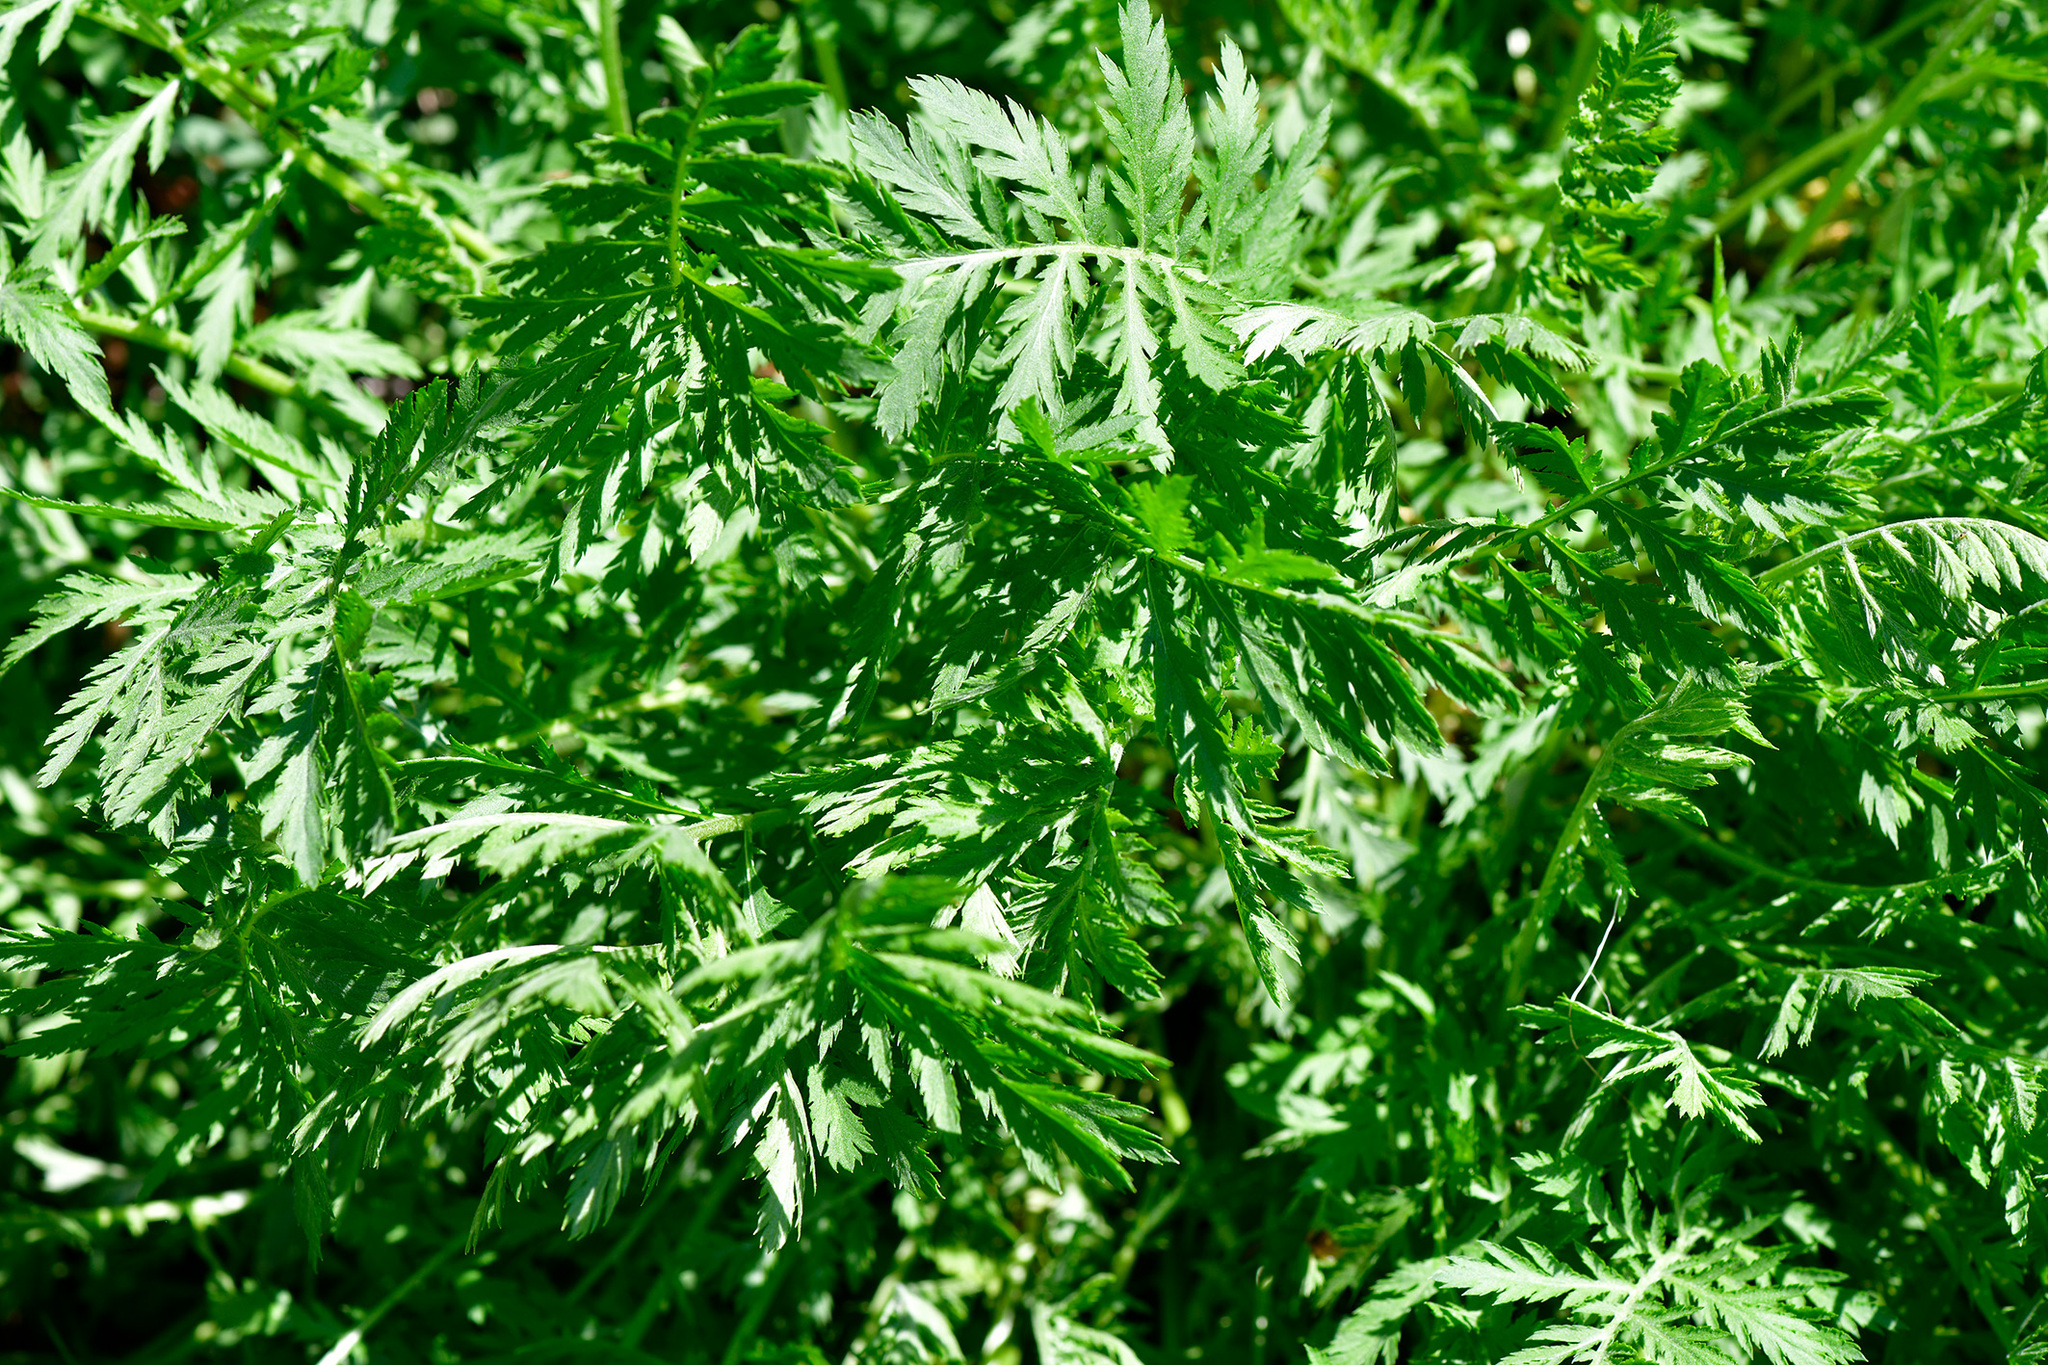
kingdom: Plantae
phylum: Tracheophyta
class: Magnoliopsida
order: Asterales
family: Asteraceae
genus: Tanacetum
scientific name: Tanacetum vulgare
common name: Common tansy
